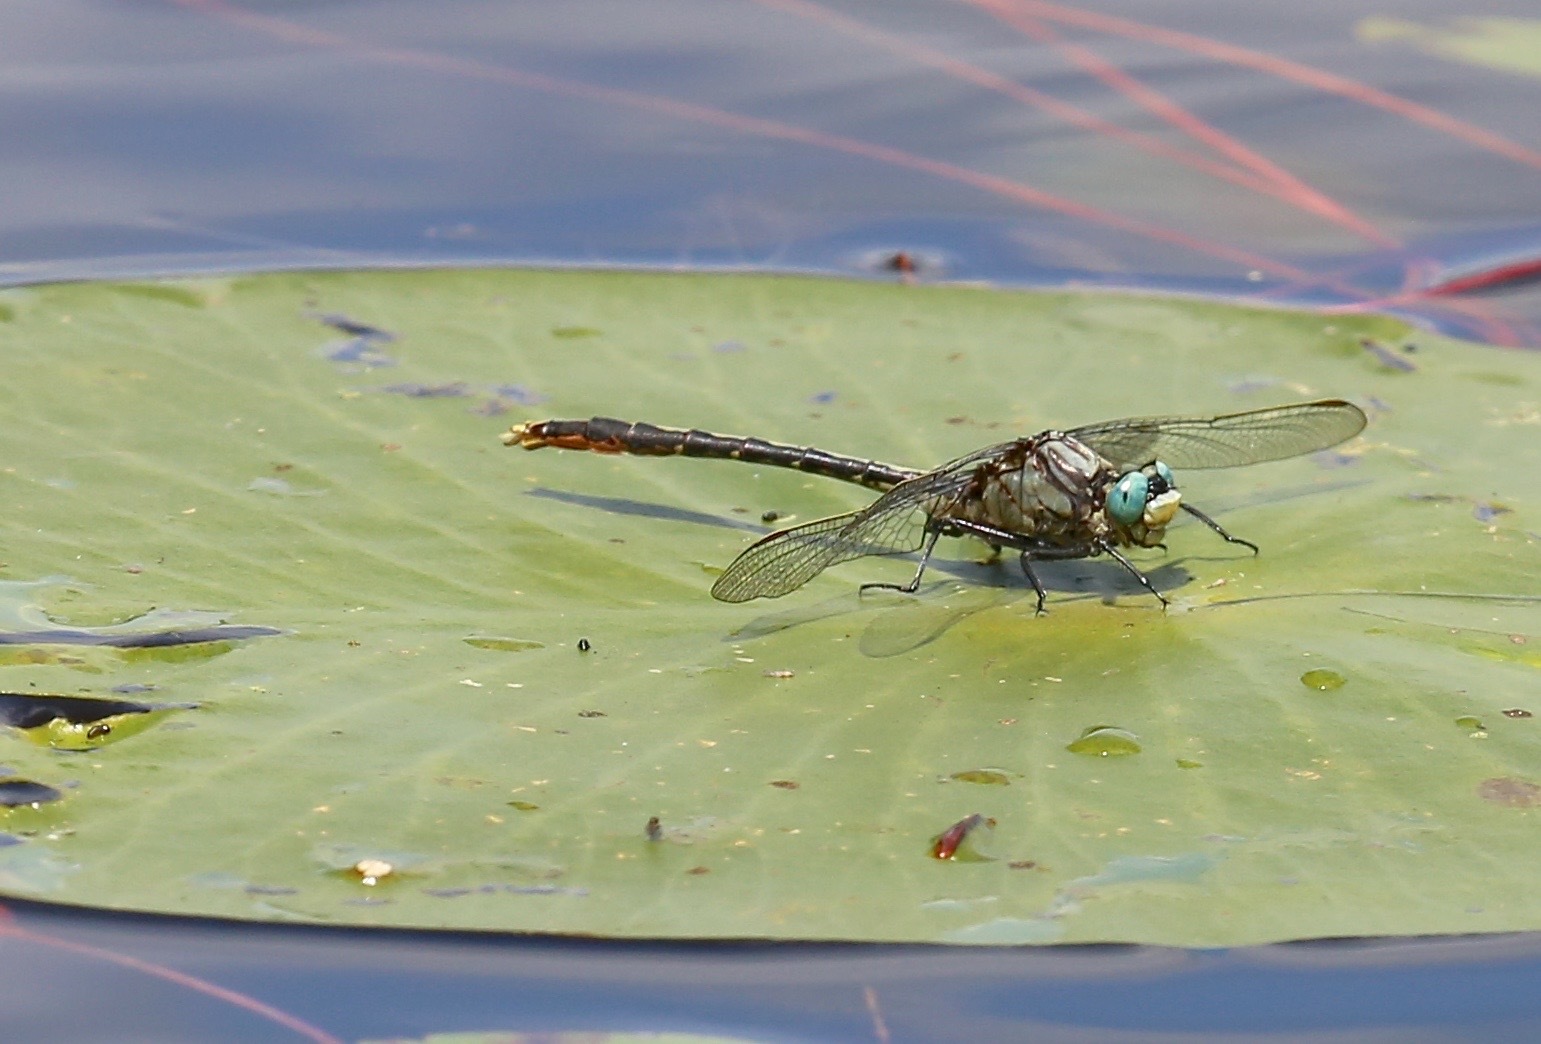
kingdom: Animalia
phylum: Arthropoda
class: Insecta
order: Odonata
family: Gomphidae
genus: Arigomphus
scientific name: Arigomphus furcifer
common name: Lilypad clubtail
